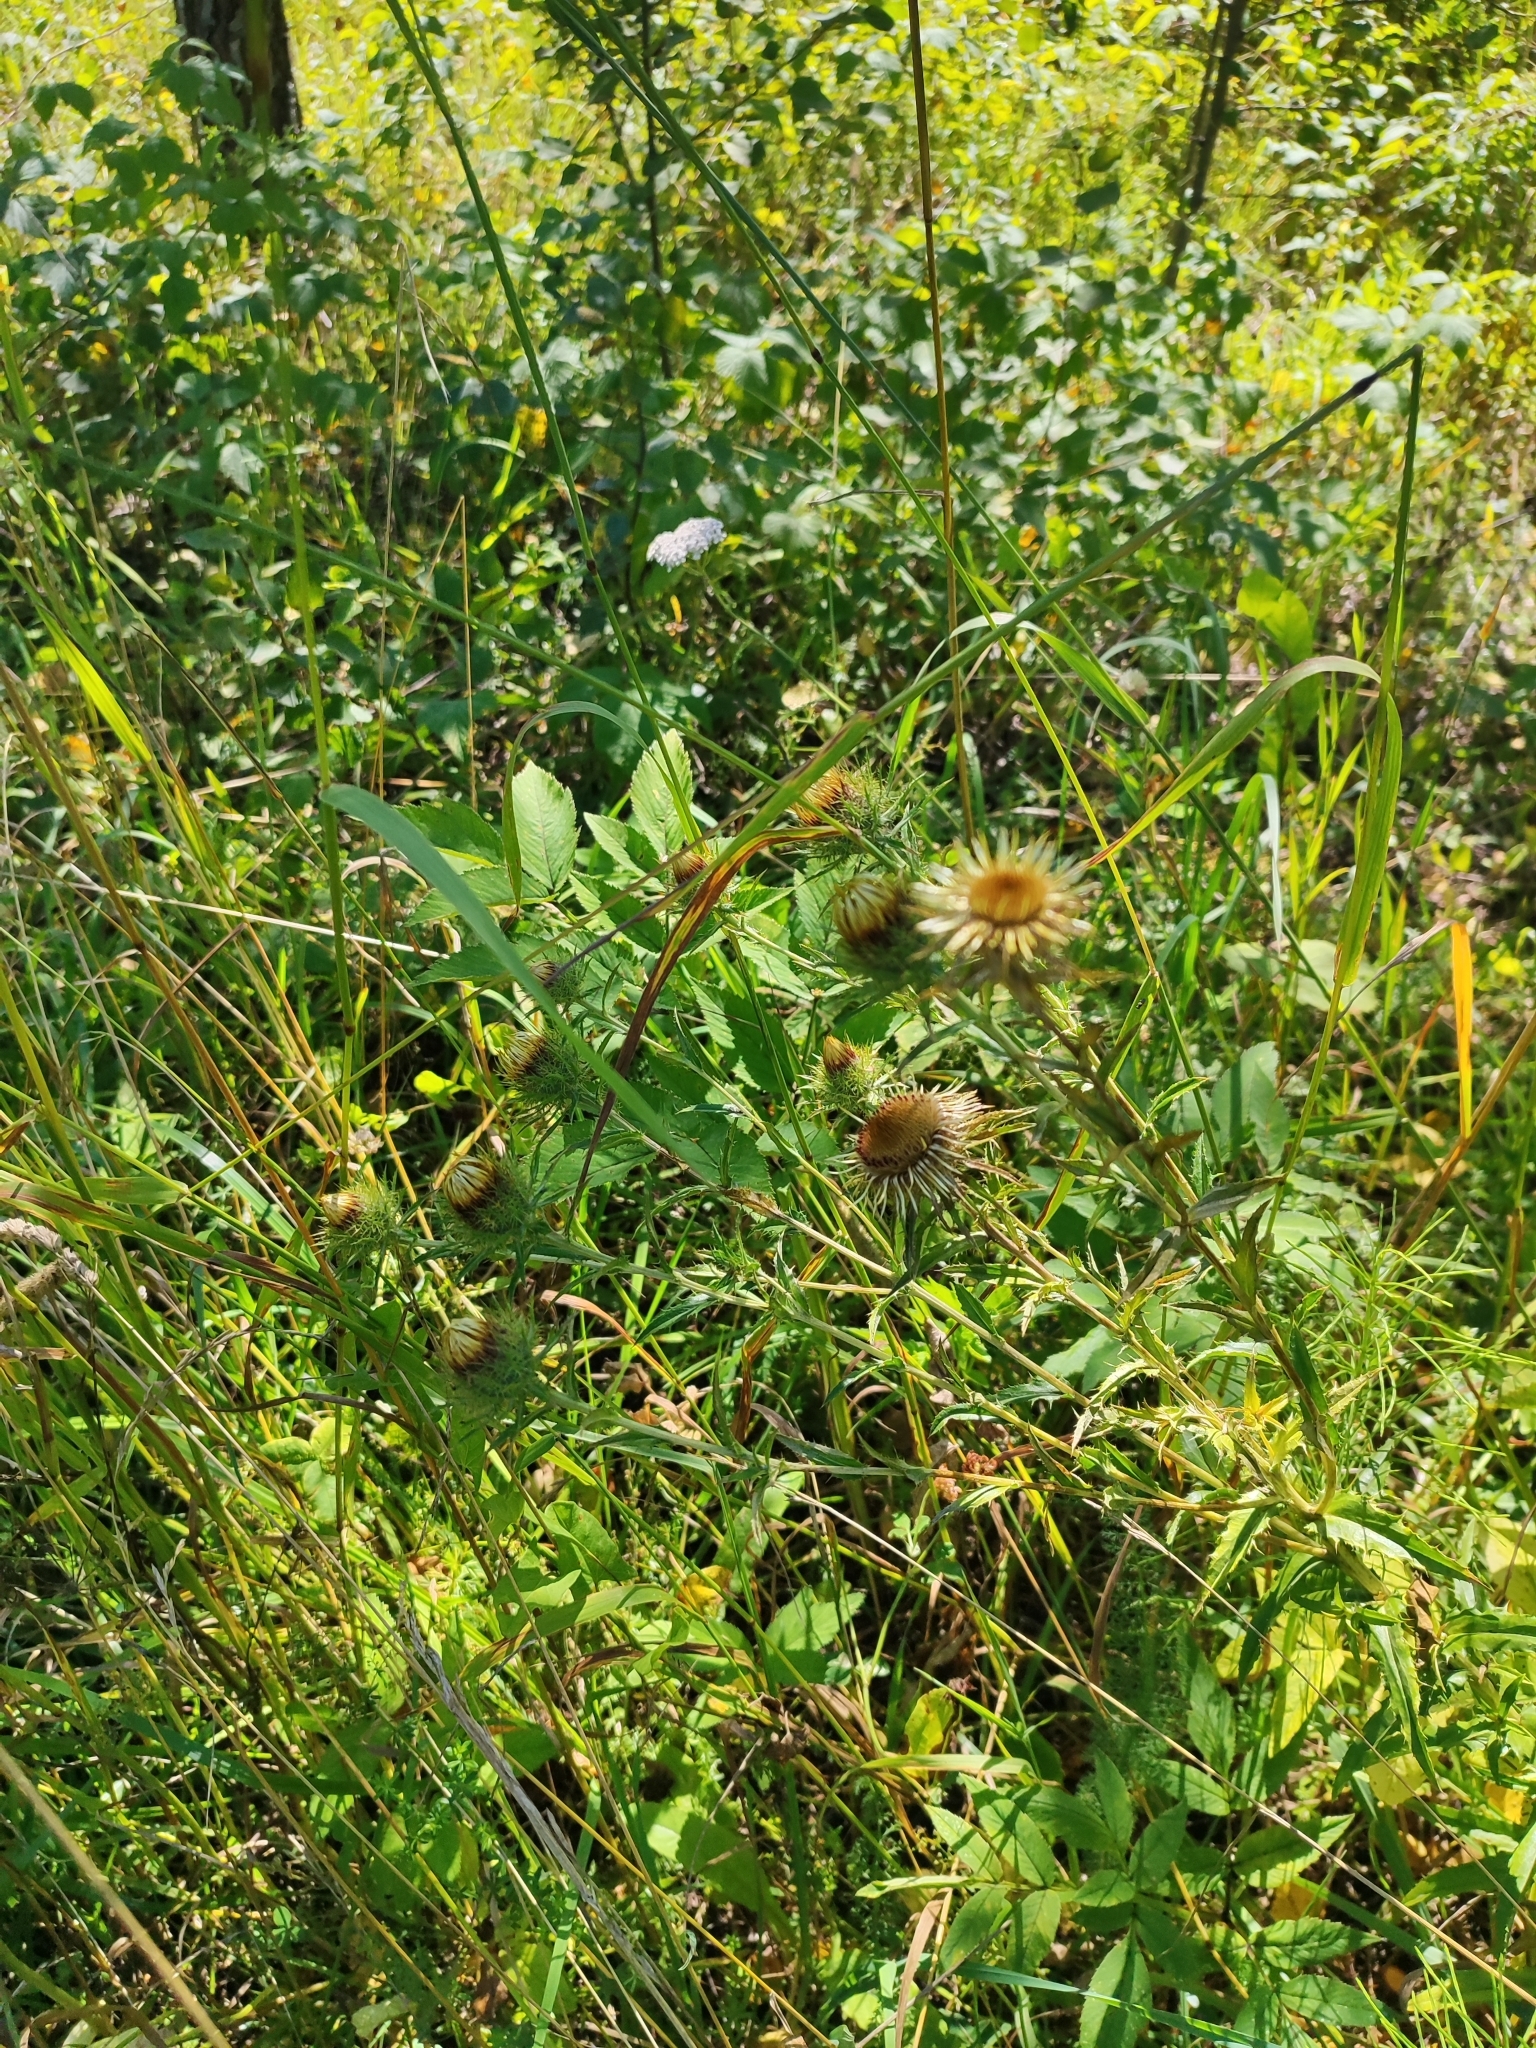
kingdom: Plantae
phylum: Tracheophyta
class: Magnoliopsida
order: Asterales
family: Asteraceae
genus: Carlina
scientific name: Carlina biebersteinii
